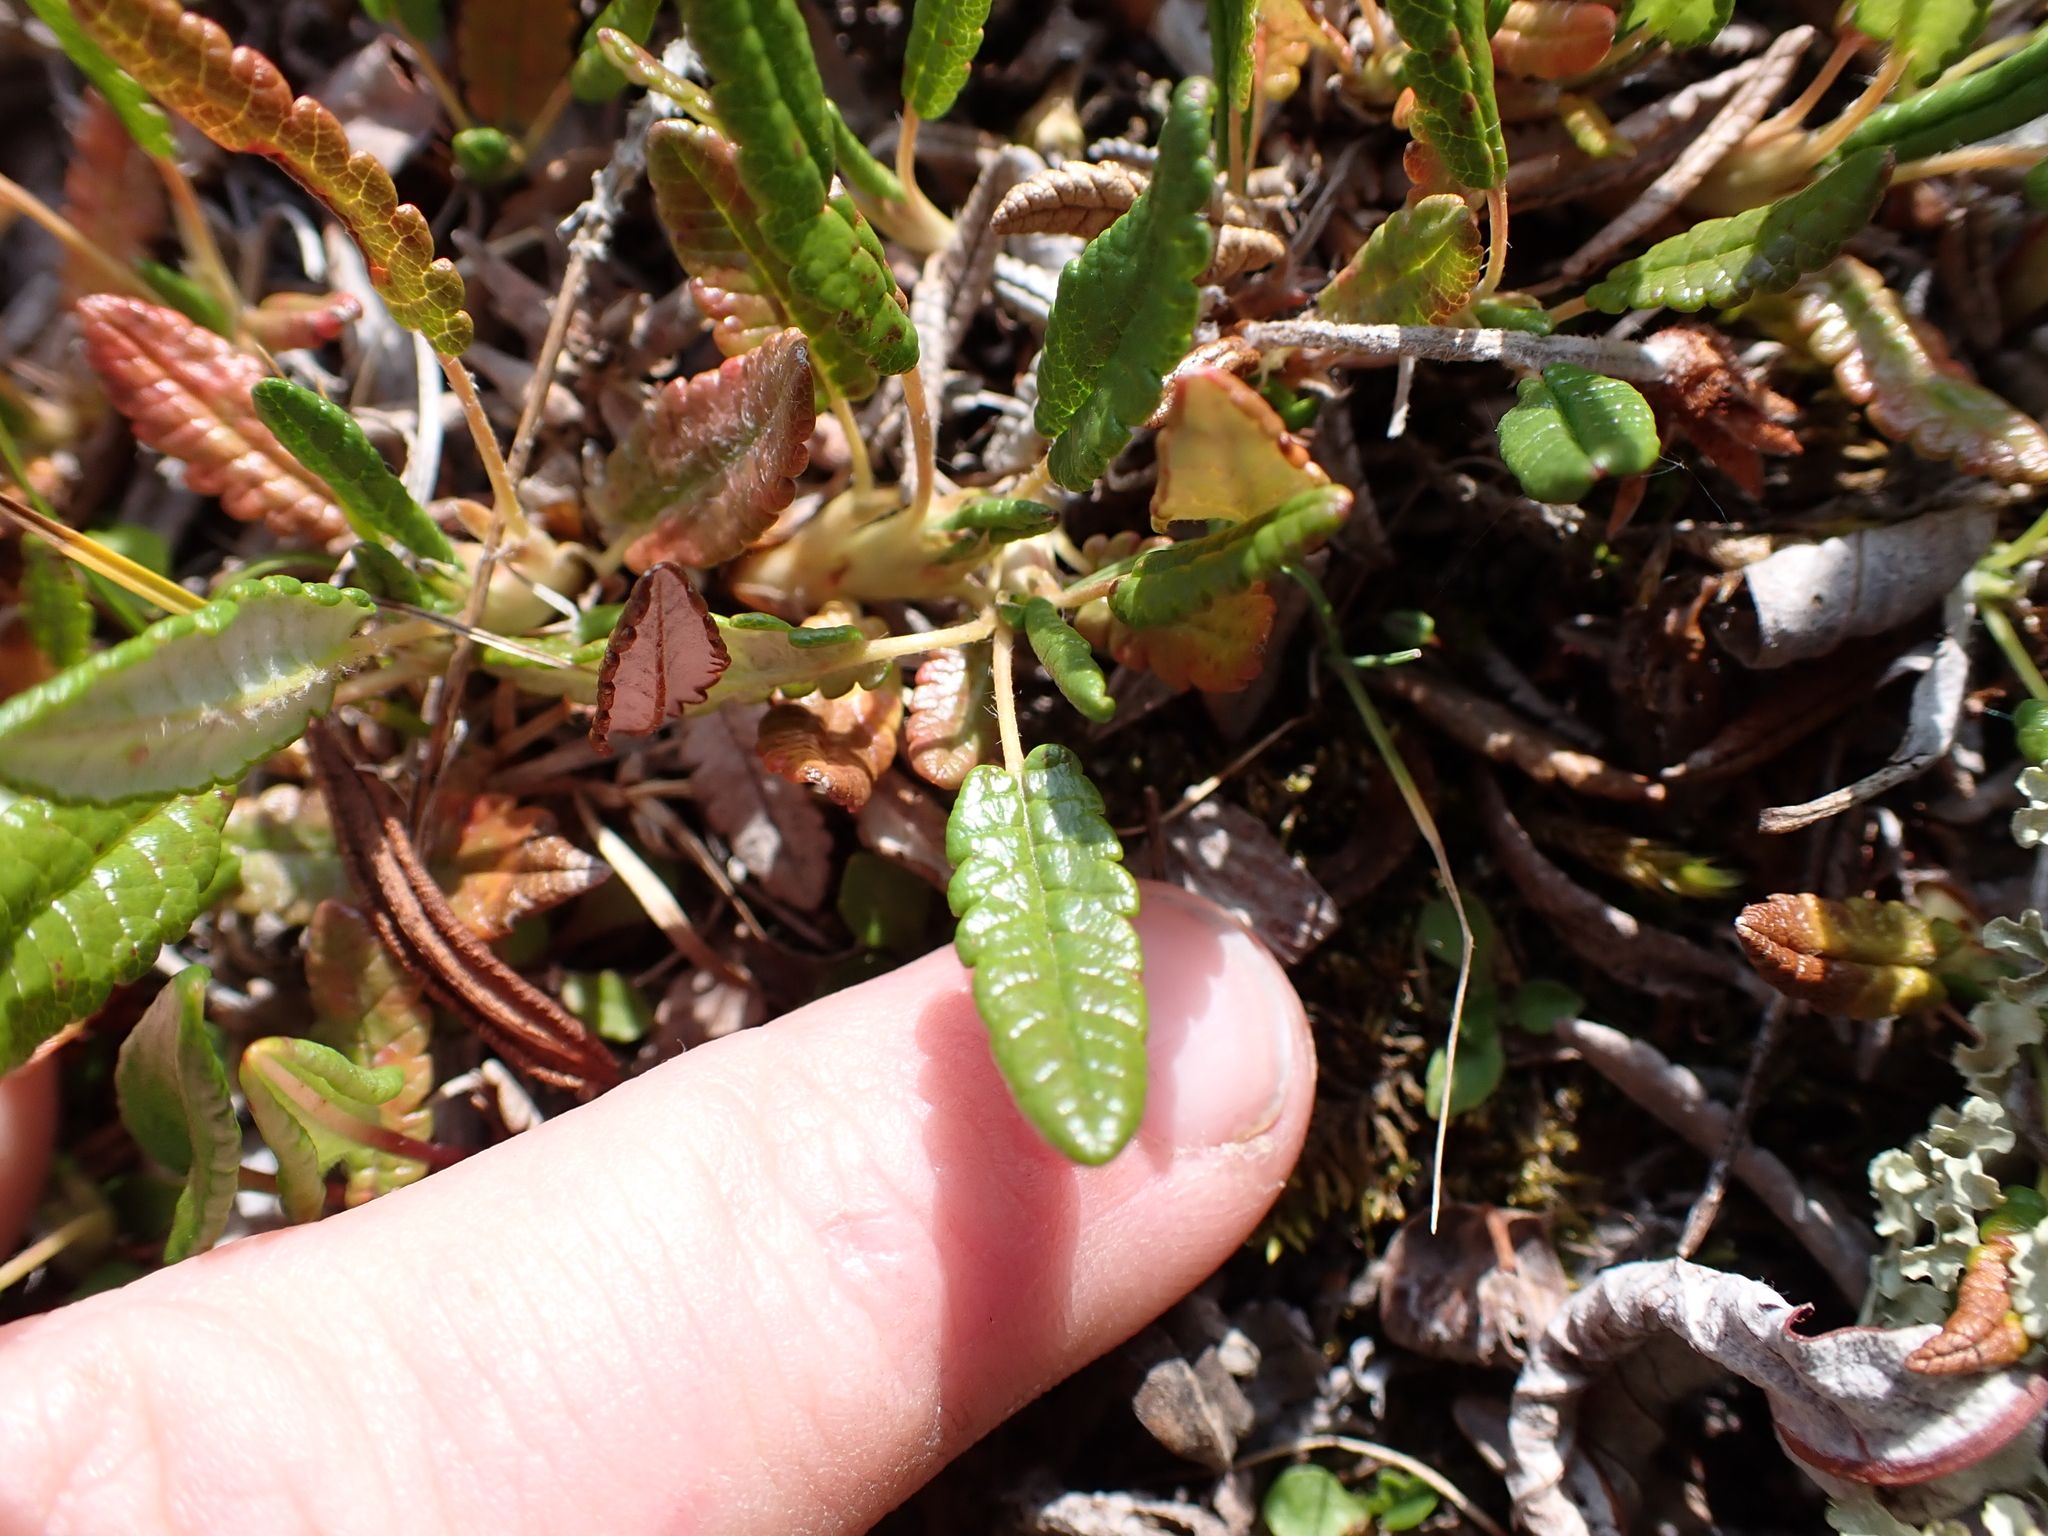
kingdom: Plantae
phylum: Tracheophyta
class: Magnoliopsida
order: Rosales
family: Rosaceae
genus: Dryas
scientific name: Dryas octopetala
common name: Eight-petal mountain-avens
